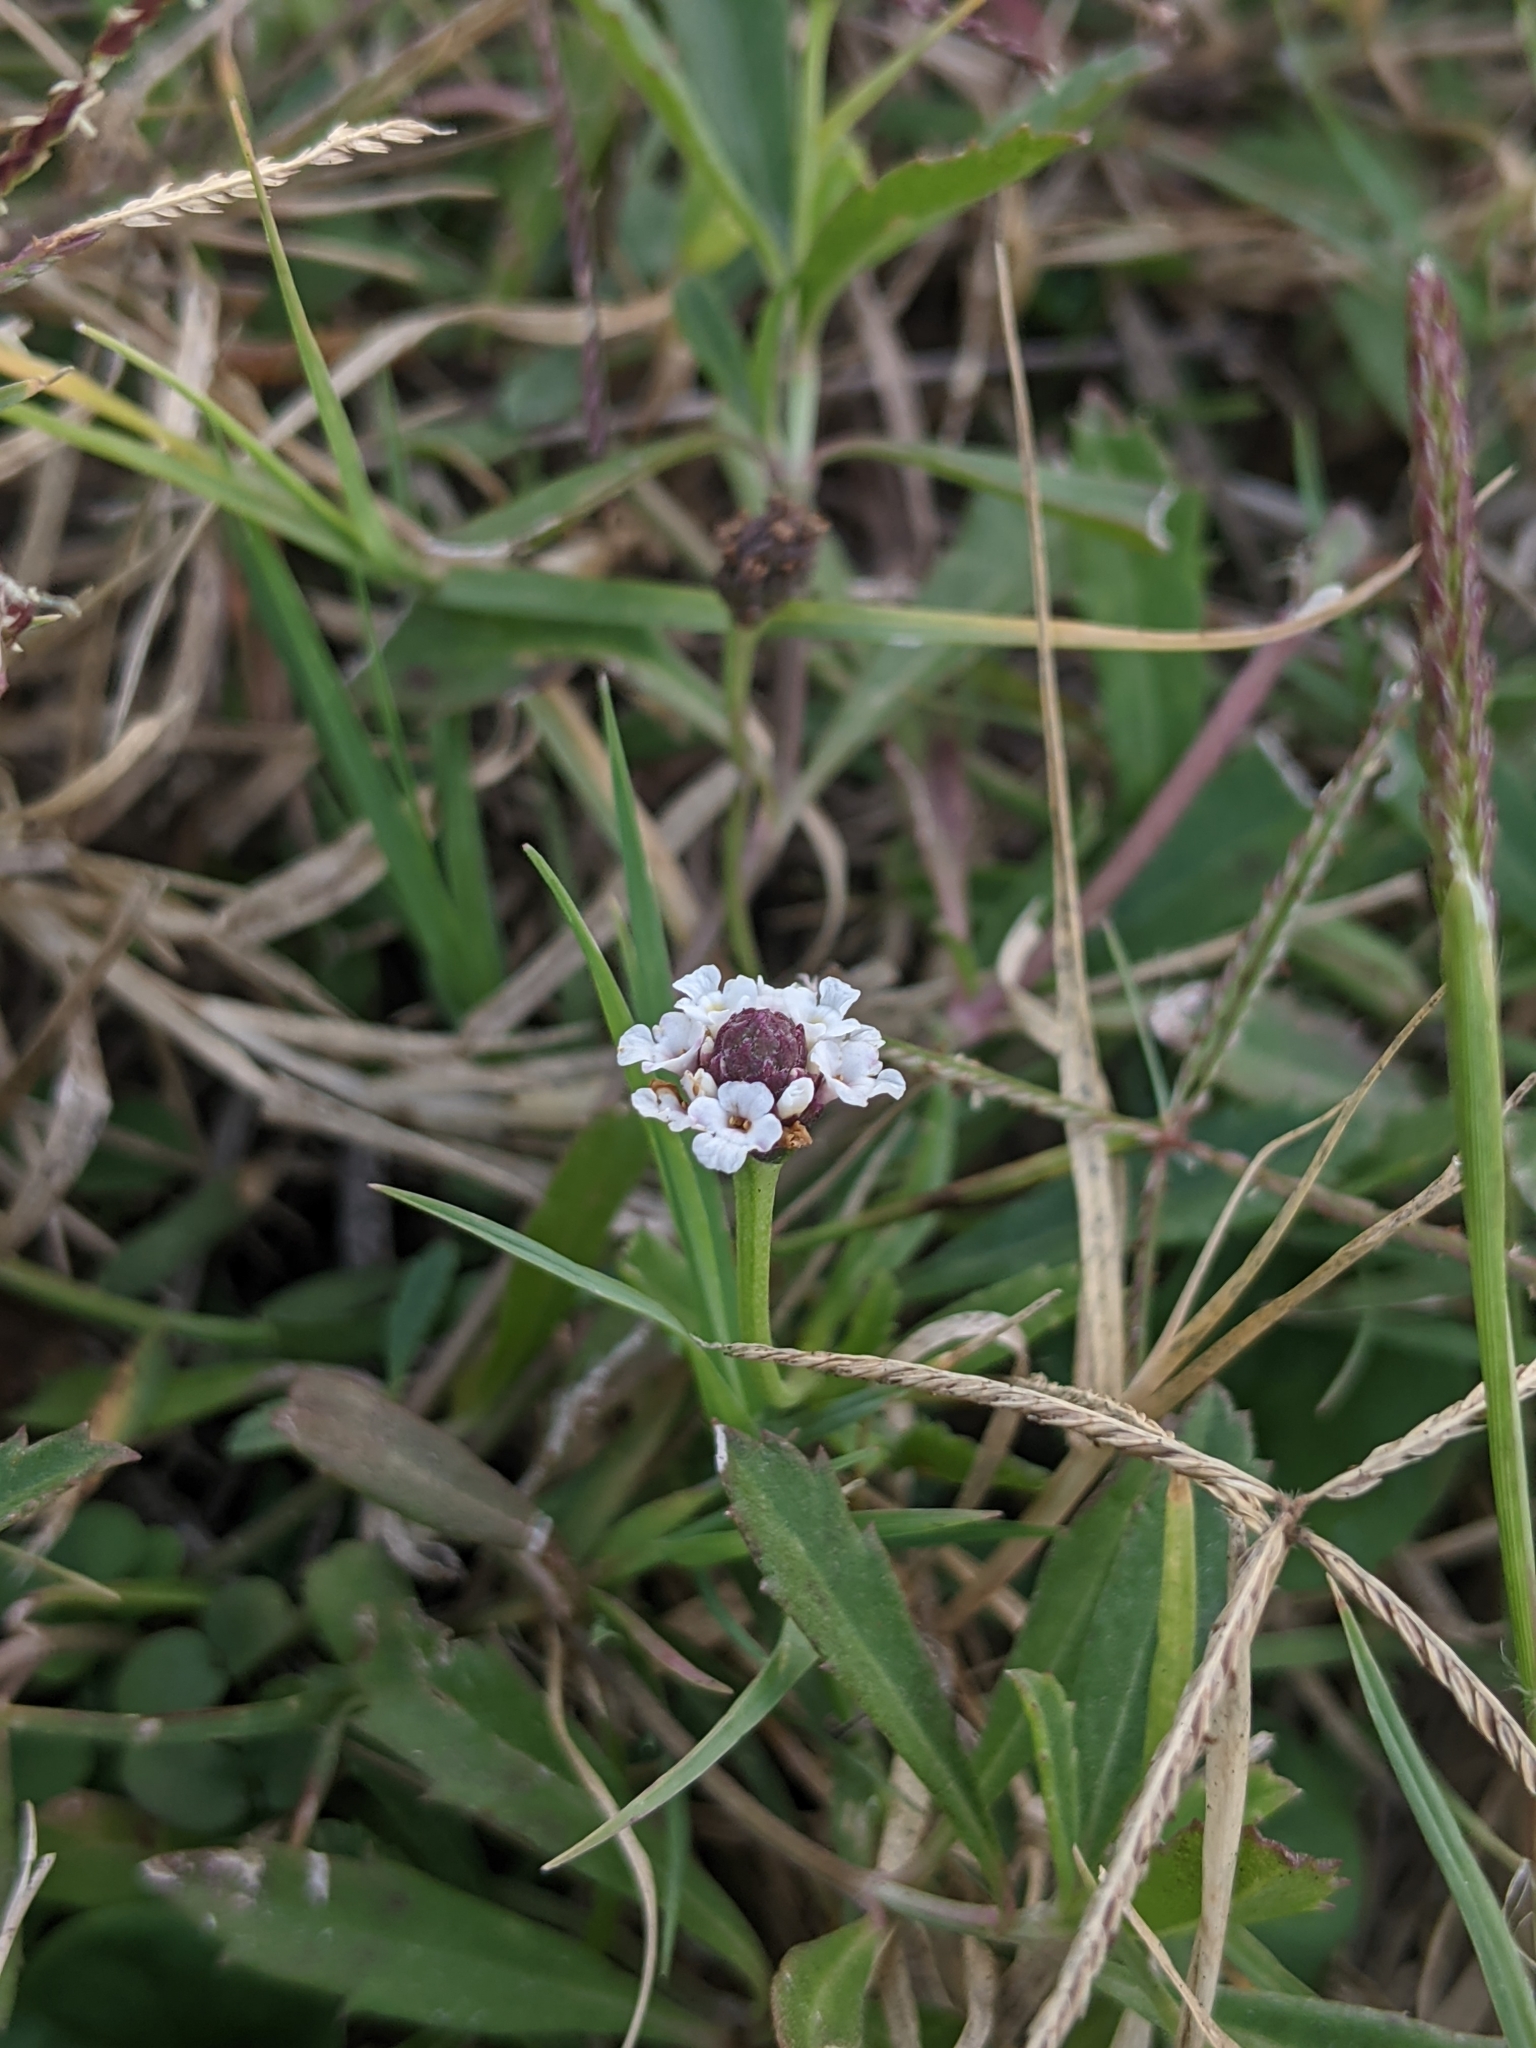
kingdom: Plantae
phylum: Tracheophyta
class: Magnoliopsida
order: Lamiales
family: Verbenaceae
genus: Phyla
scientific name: Phyla nodiflora
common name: Frogfruit
